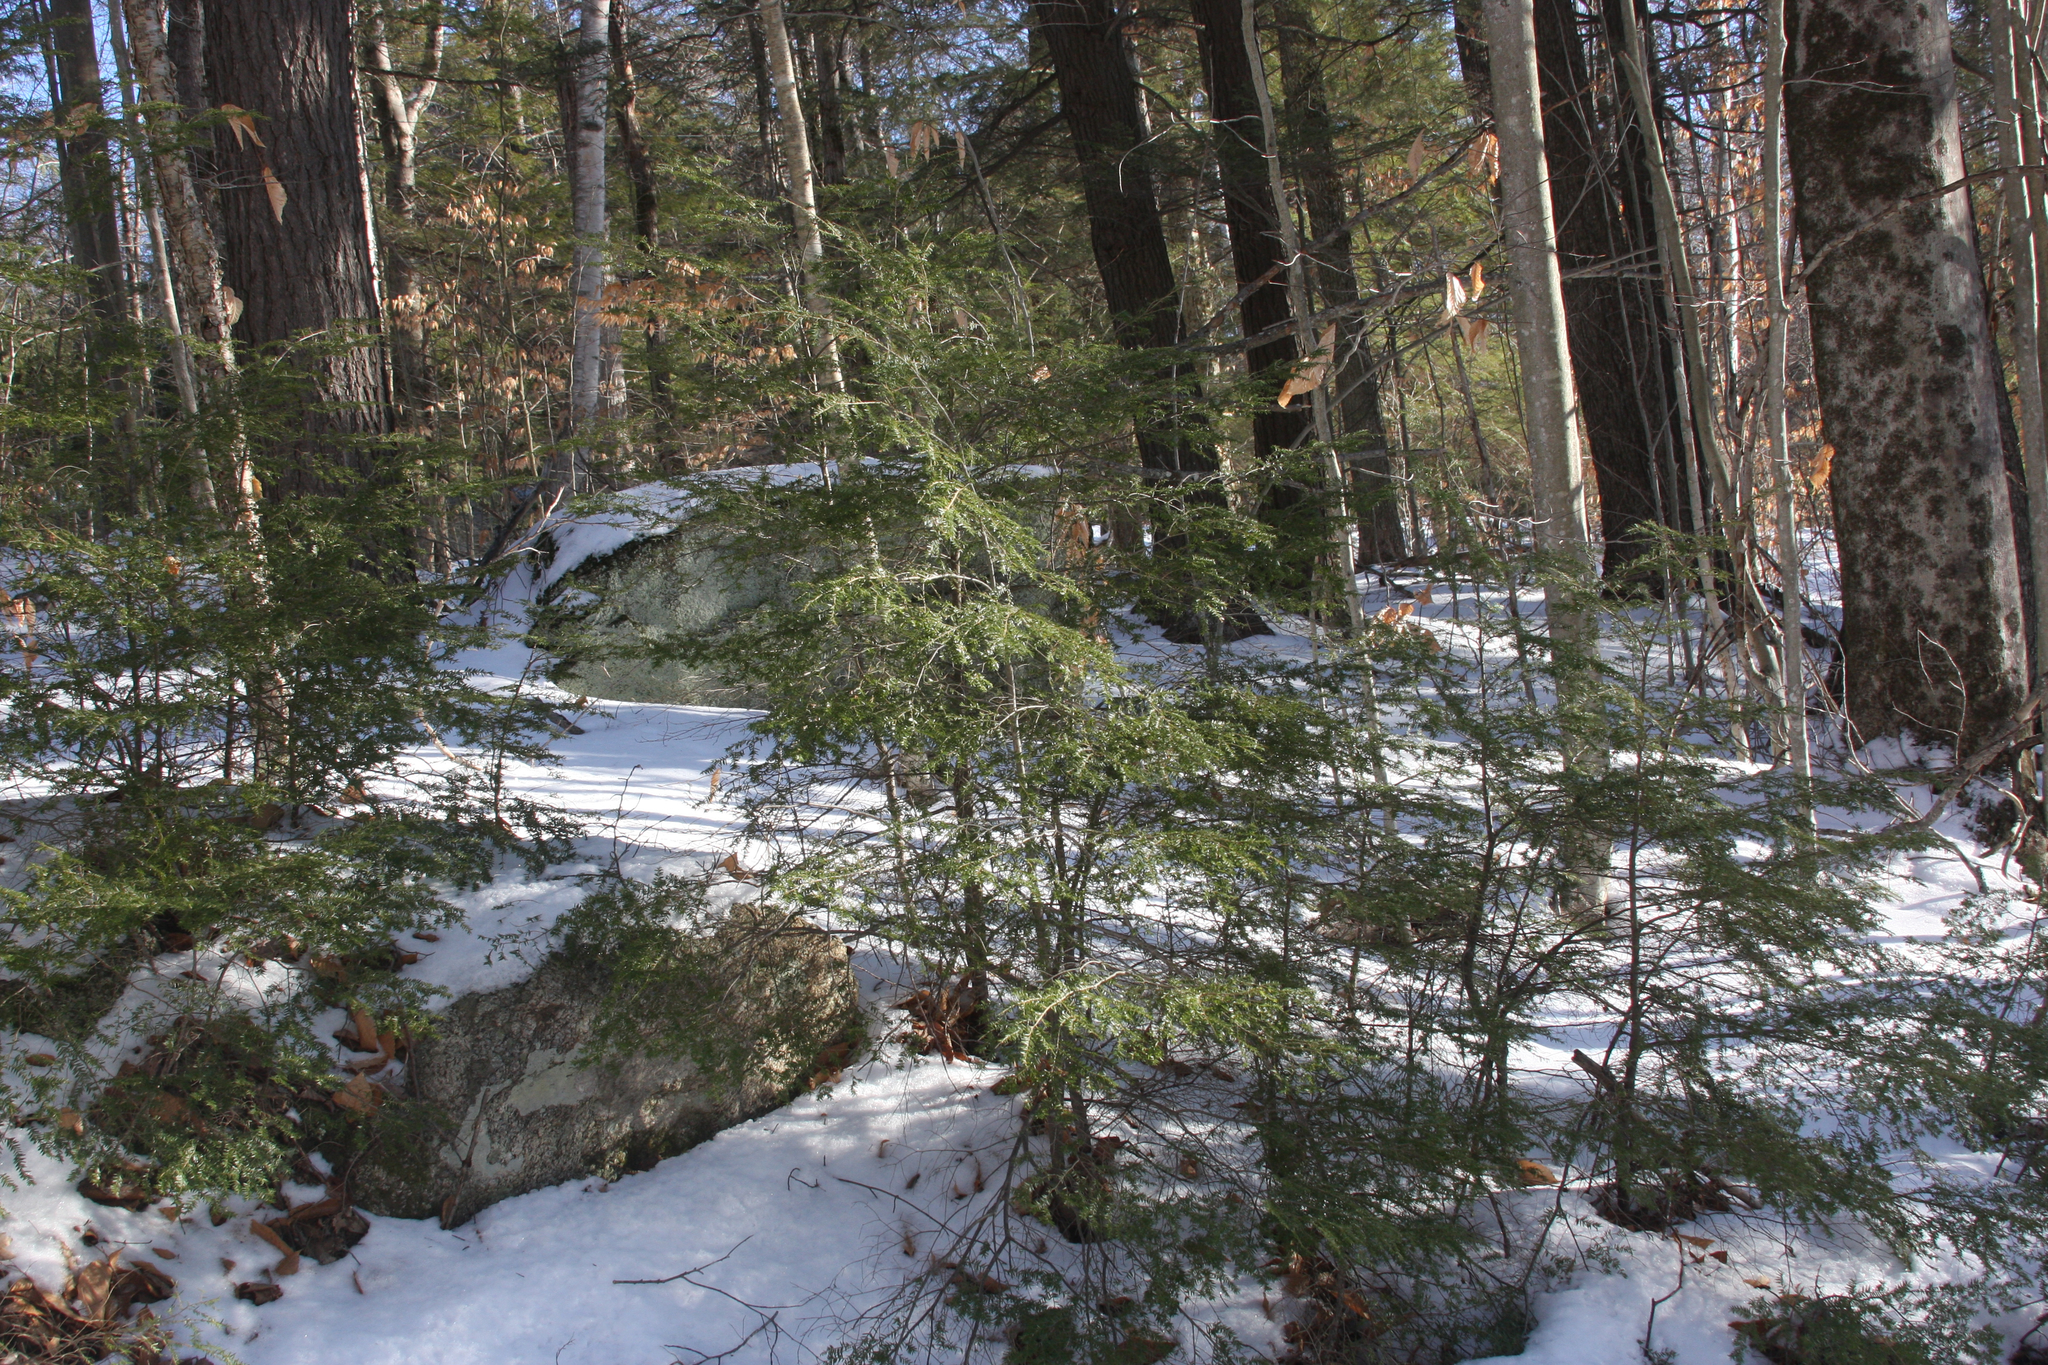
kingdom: Plantae
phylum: Tracheophyta
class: Pinopsida
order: Pinales
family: Pinaceae
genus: Tsuga
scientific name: Tsuga canadensis
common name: Eastern hemlock
